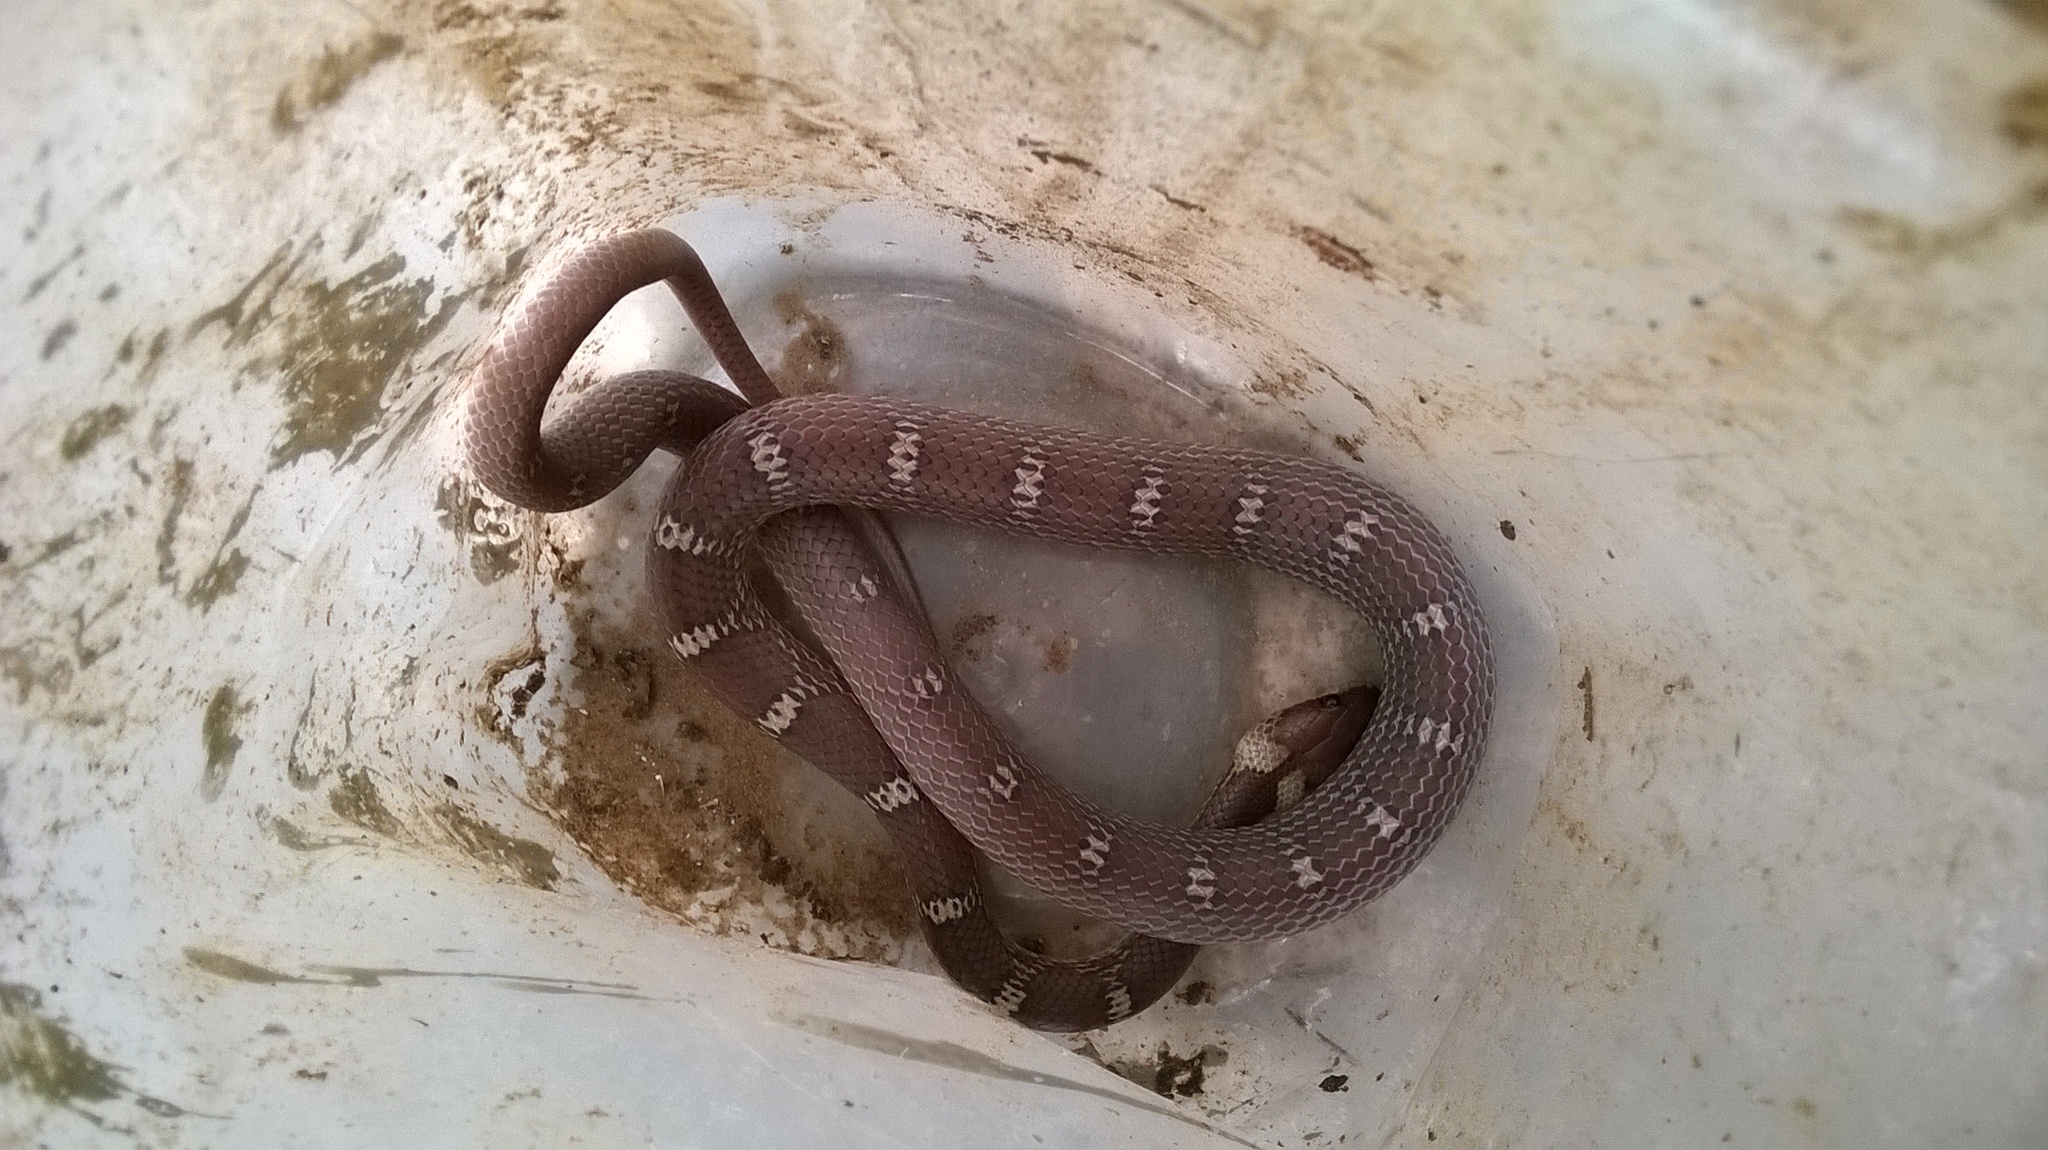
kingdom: Animalia
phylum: Chordata
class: Squamata
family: Colubridae
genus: Lycodon
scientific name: Lycodon aulicus
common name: Common wolf snake
